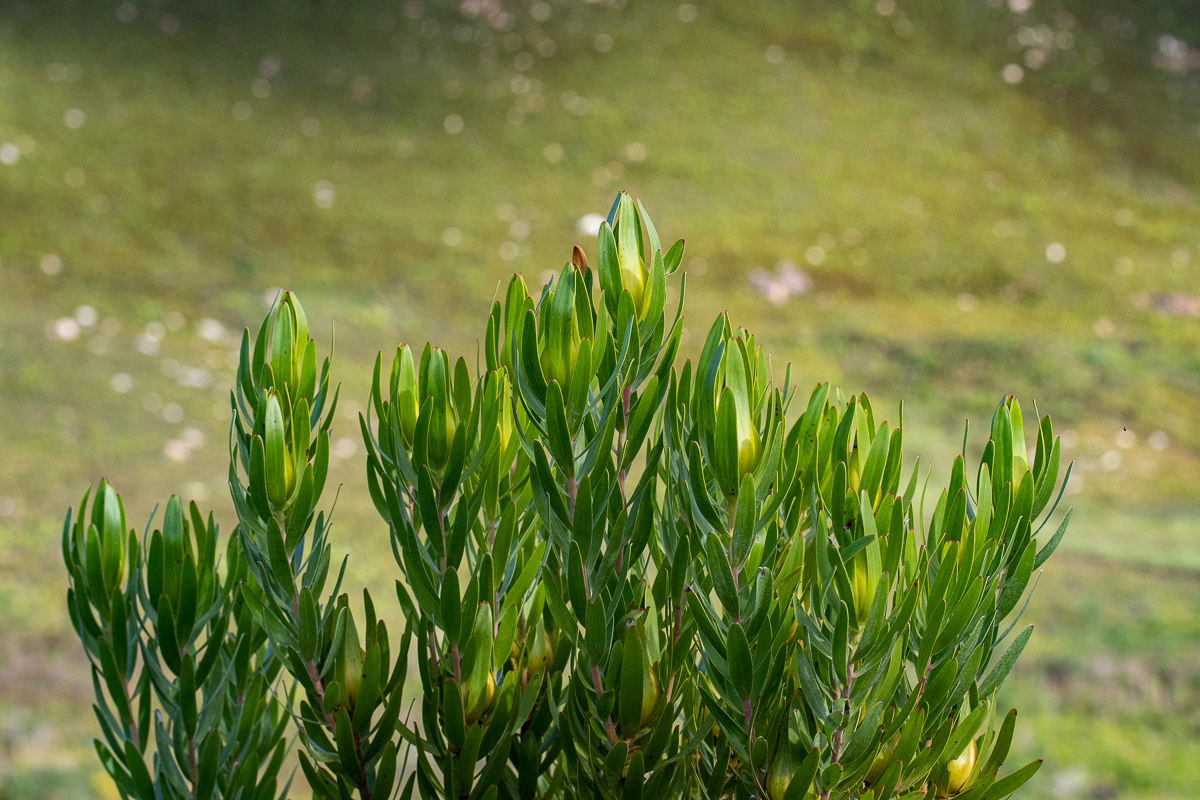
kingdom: Plantae
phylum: Tracheophyta
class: Magnoliopsida
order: Proteales
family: Proteaceae
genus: Leucadendron
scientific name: Leucadendron laureolum
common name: Golden sunshinebush
